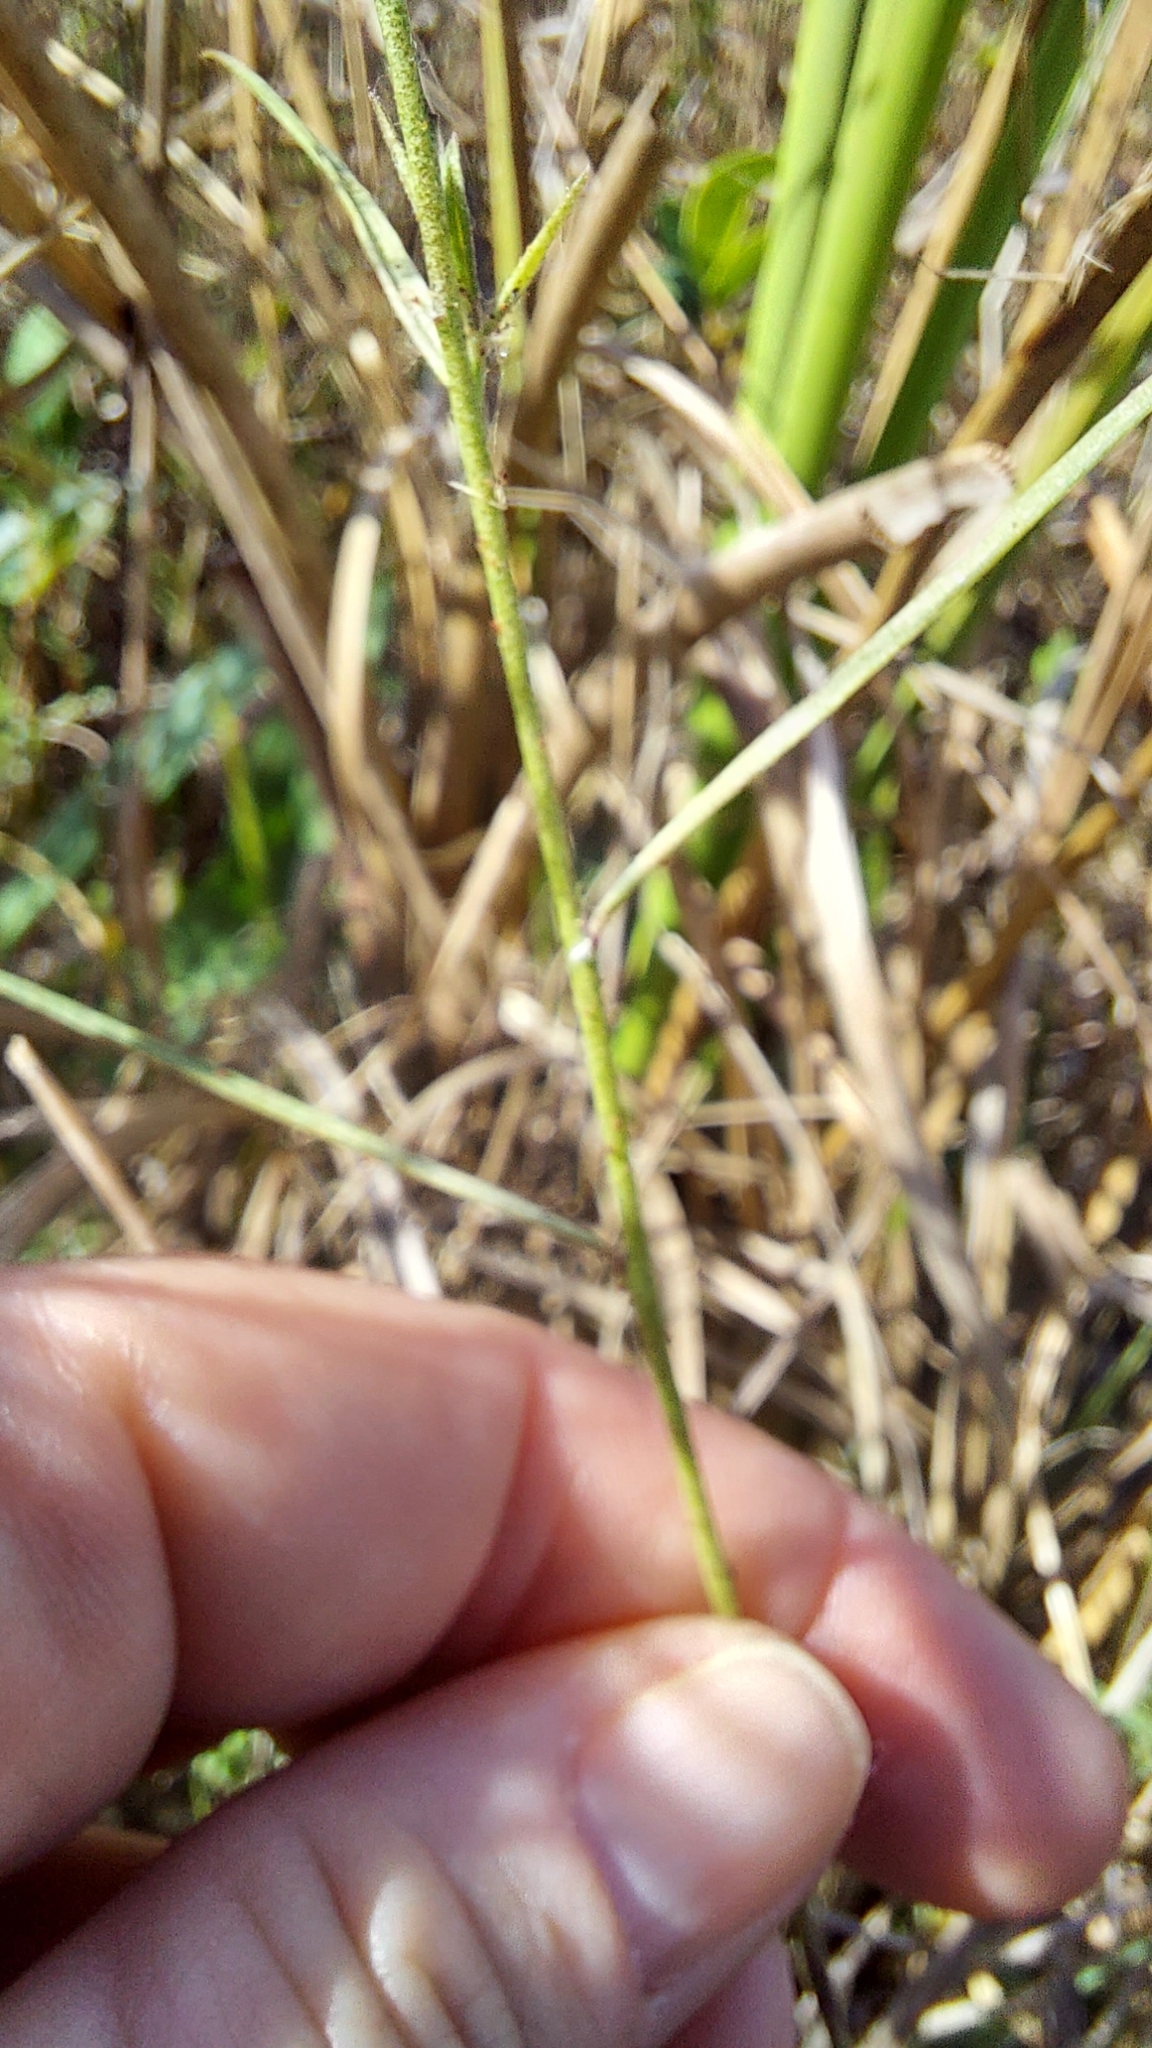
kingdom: Plantae
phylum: Tracheophyta
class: Magnoliopsida
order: Fabales
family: Polygalaceae
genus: Asemeia
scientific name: Asemeia grandiflora
